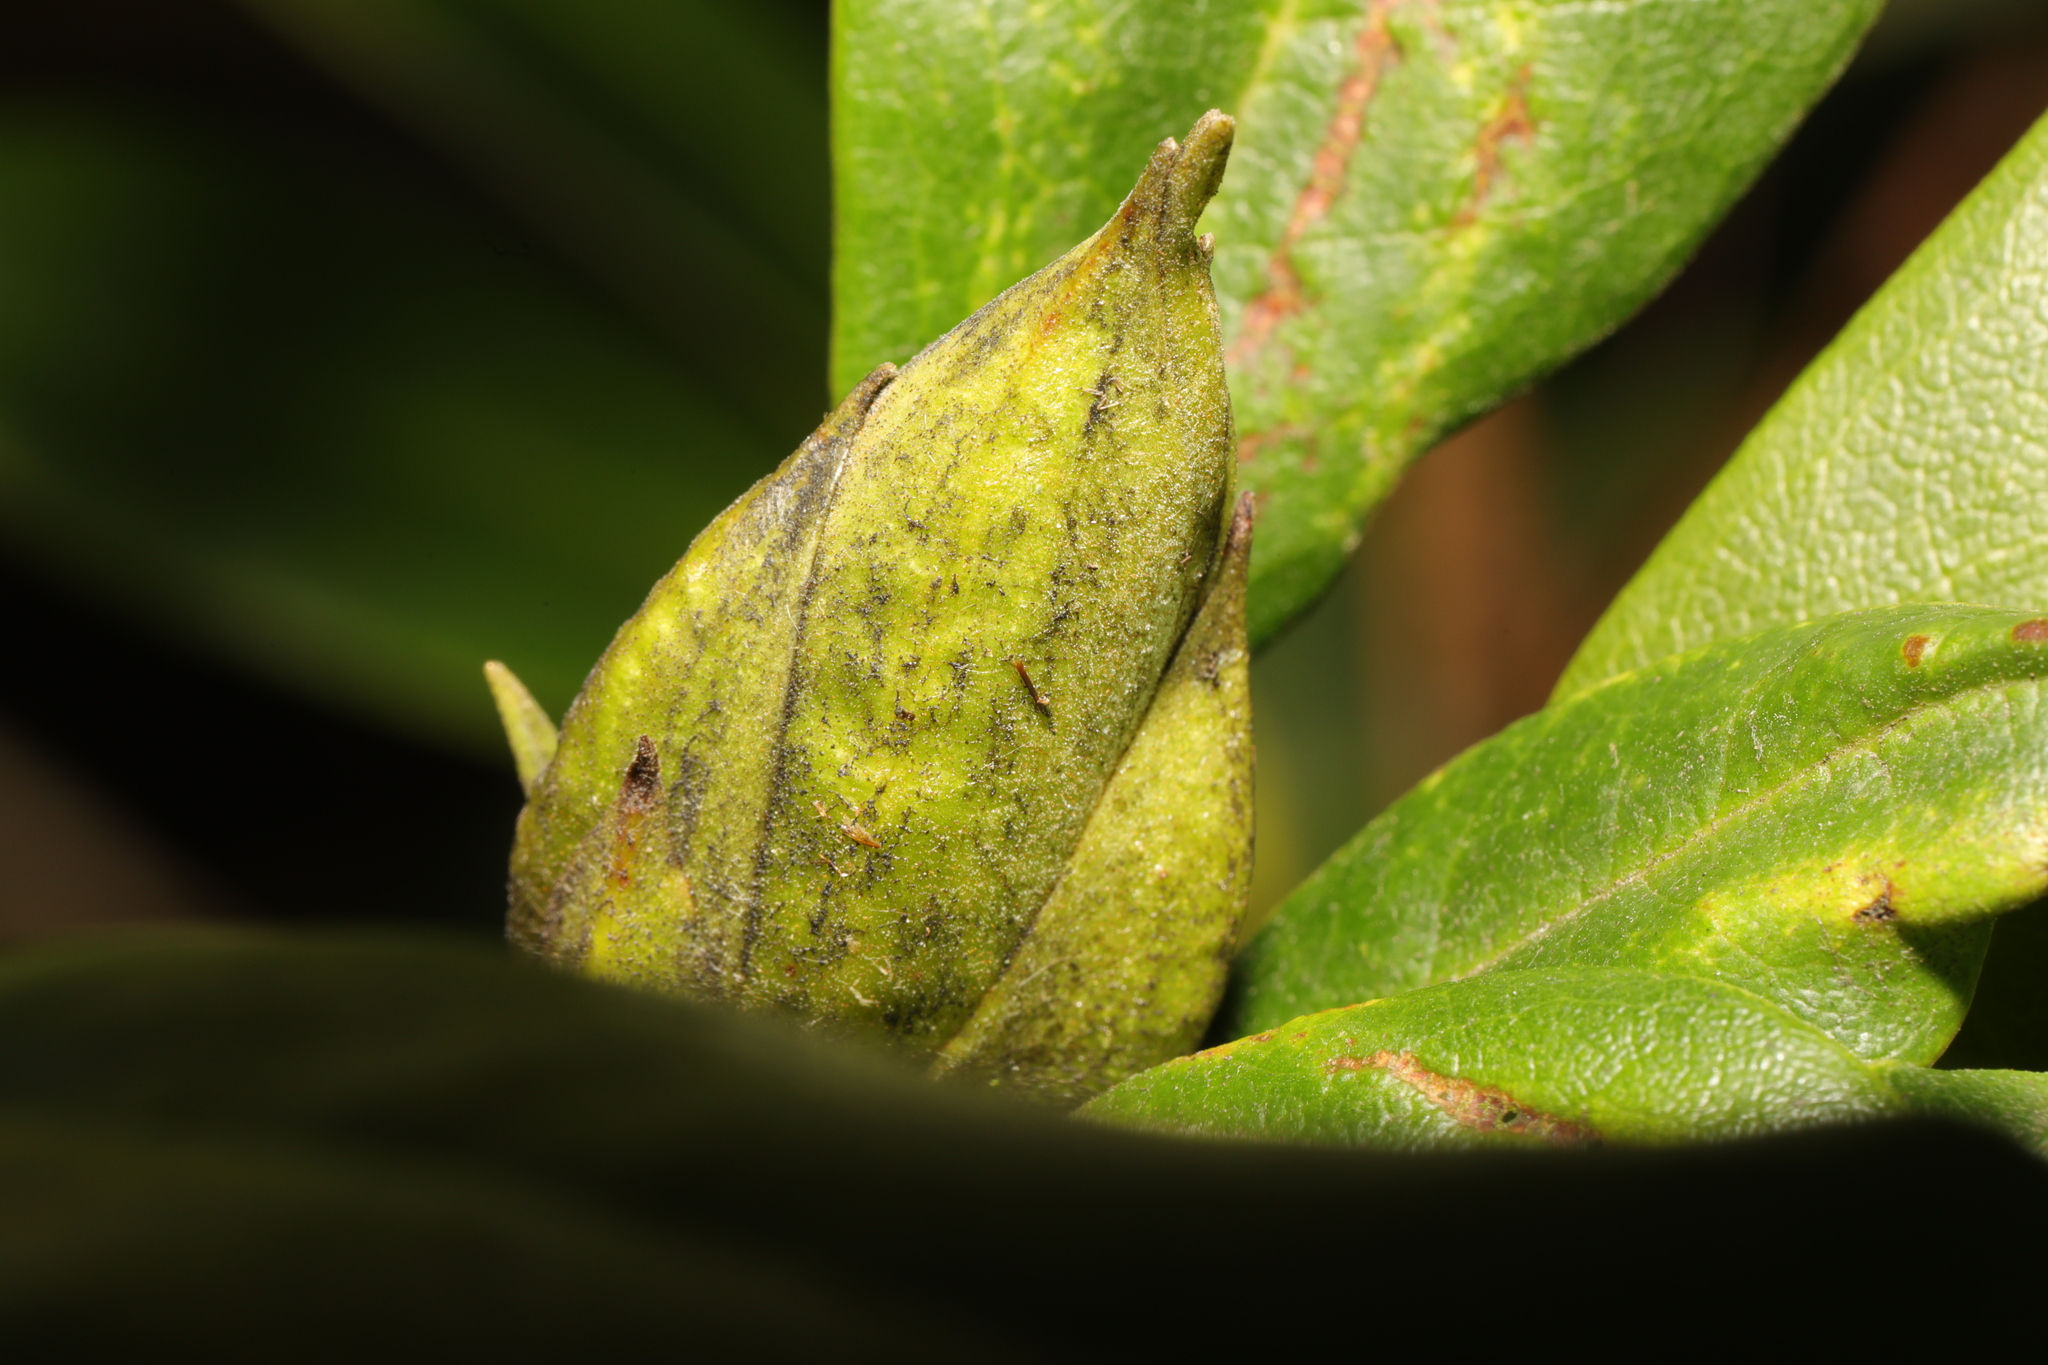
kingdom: Fungi
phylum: Ascomycota
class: Dothideomycetes
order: Pleosporales
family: Melanommataceae
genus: Seifertia
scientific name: Seifertia azaleae
